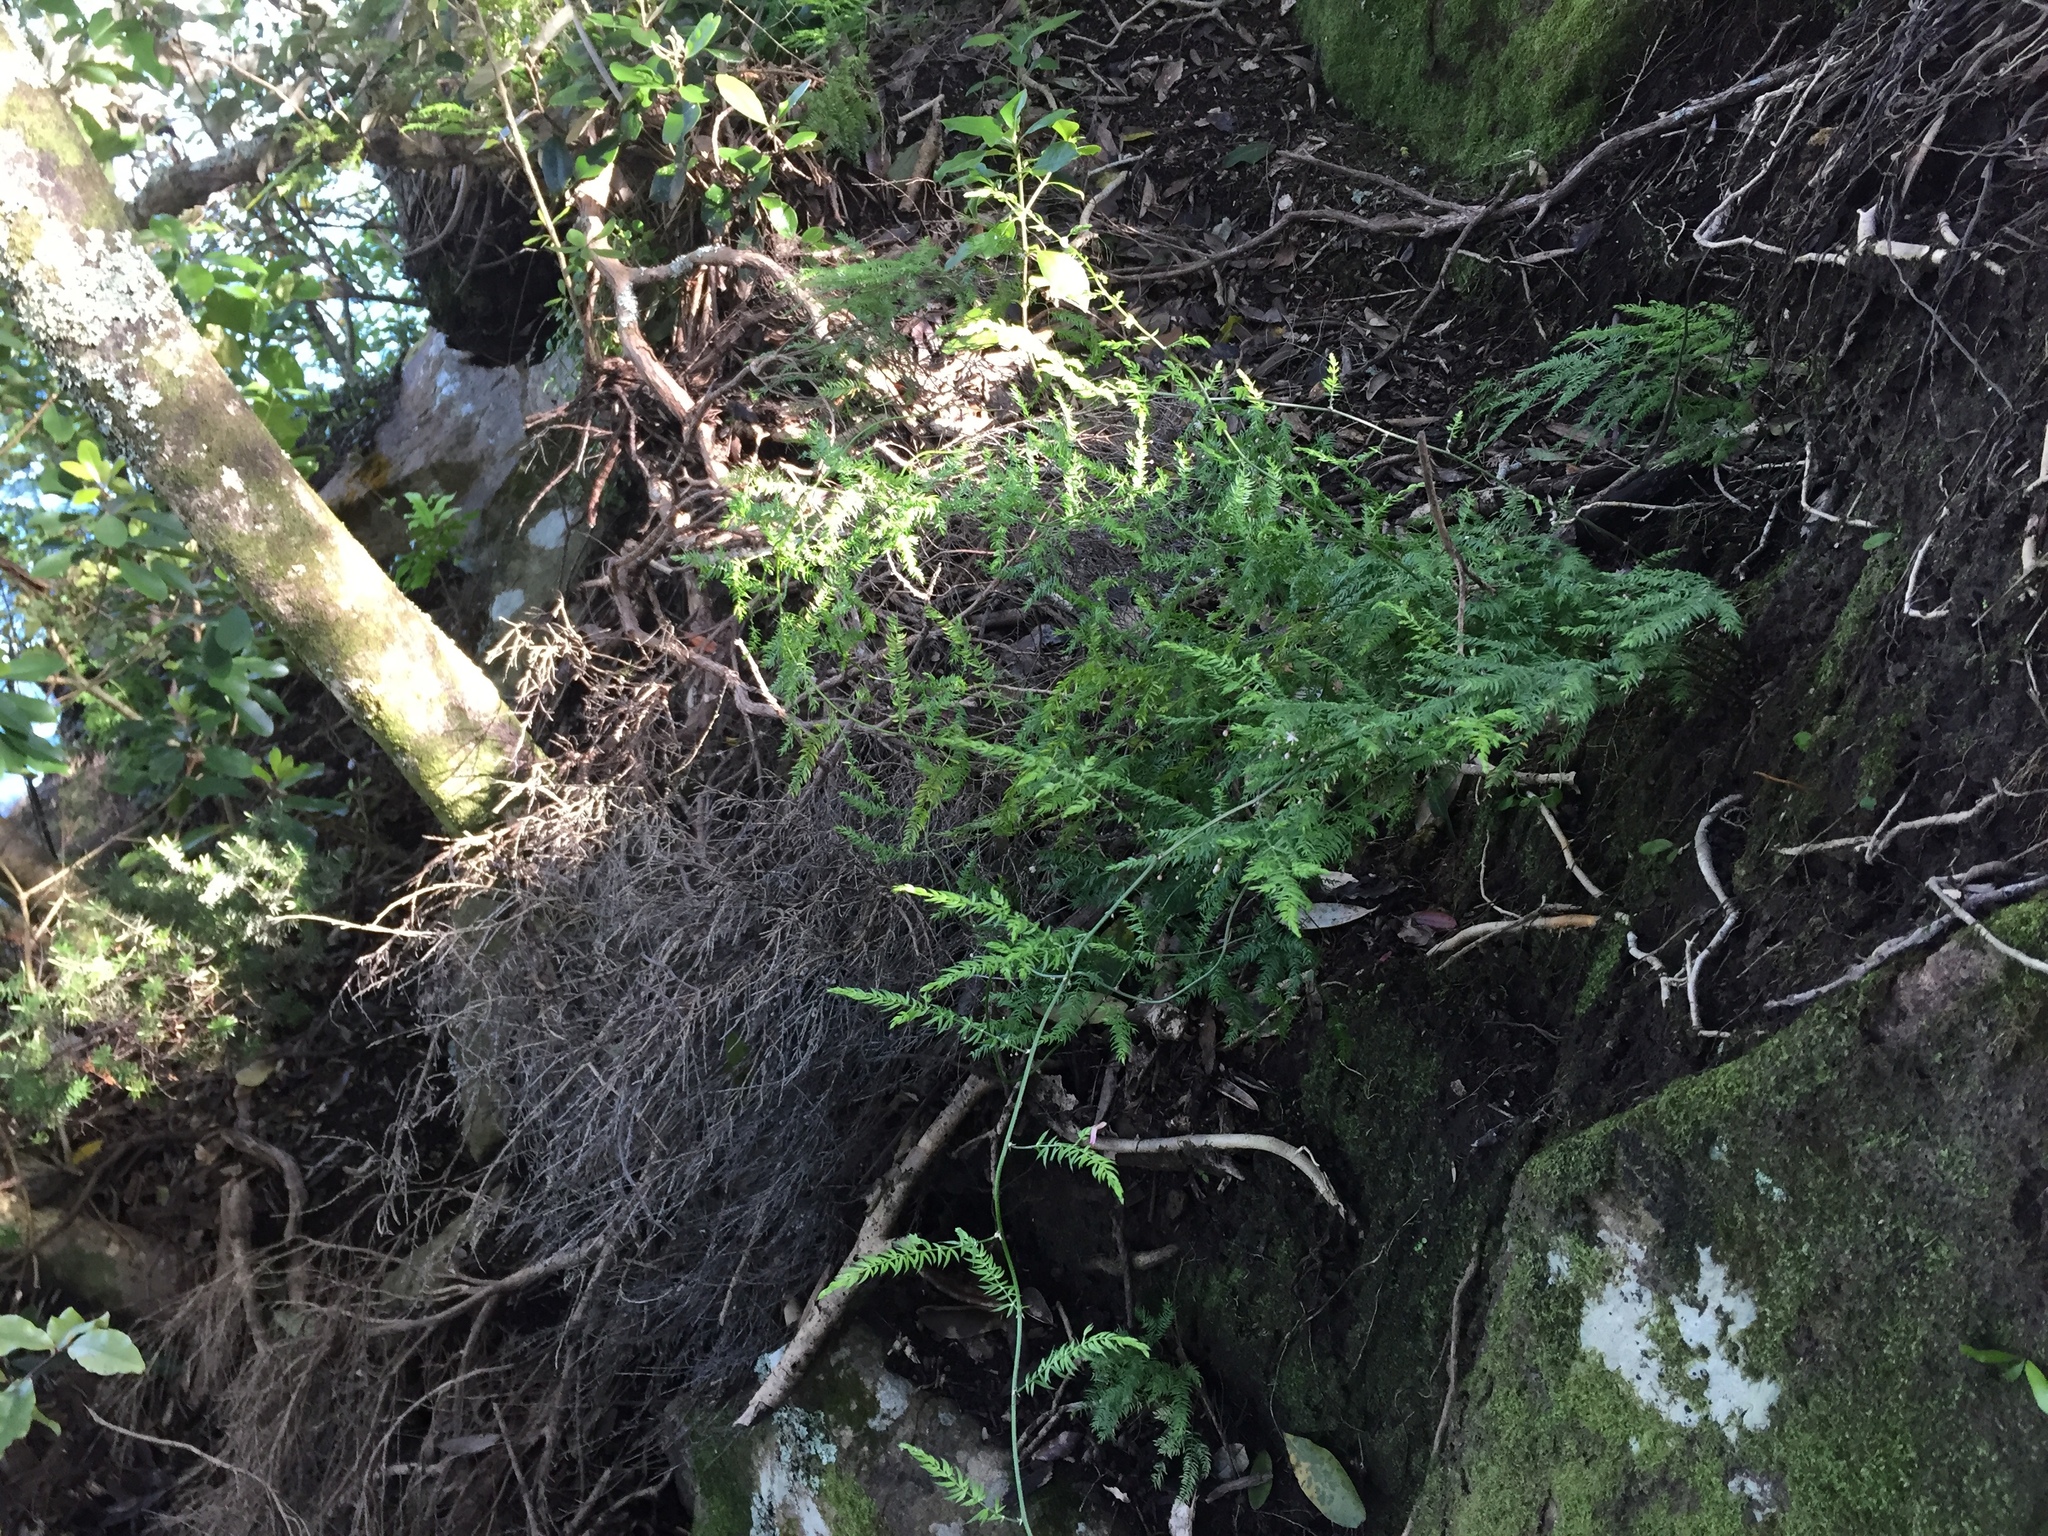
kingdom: Plantae
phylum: Tracheophyta
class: Liliopsida
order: Asparagales
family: Asparagaceae
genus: Asparagus
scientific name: Asparagus scandens
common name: Asparagus-fern
